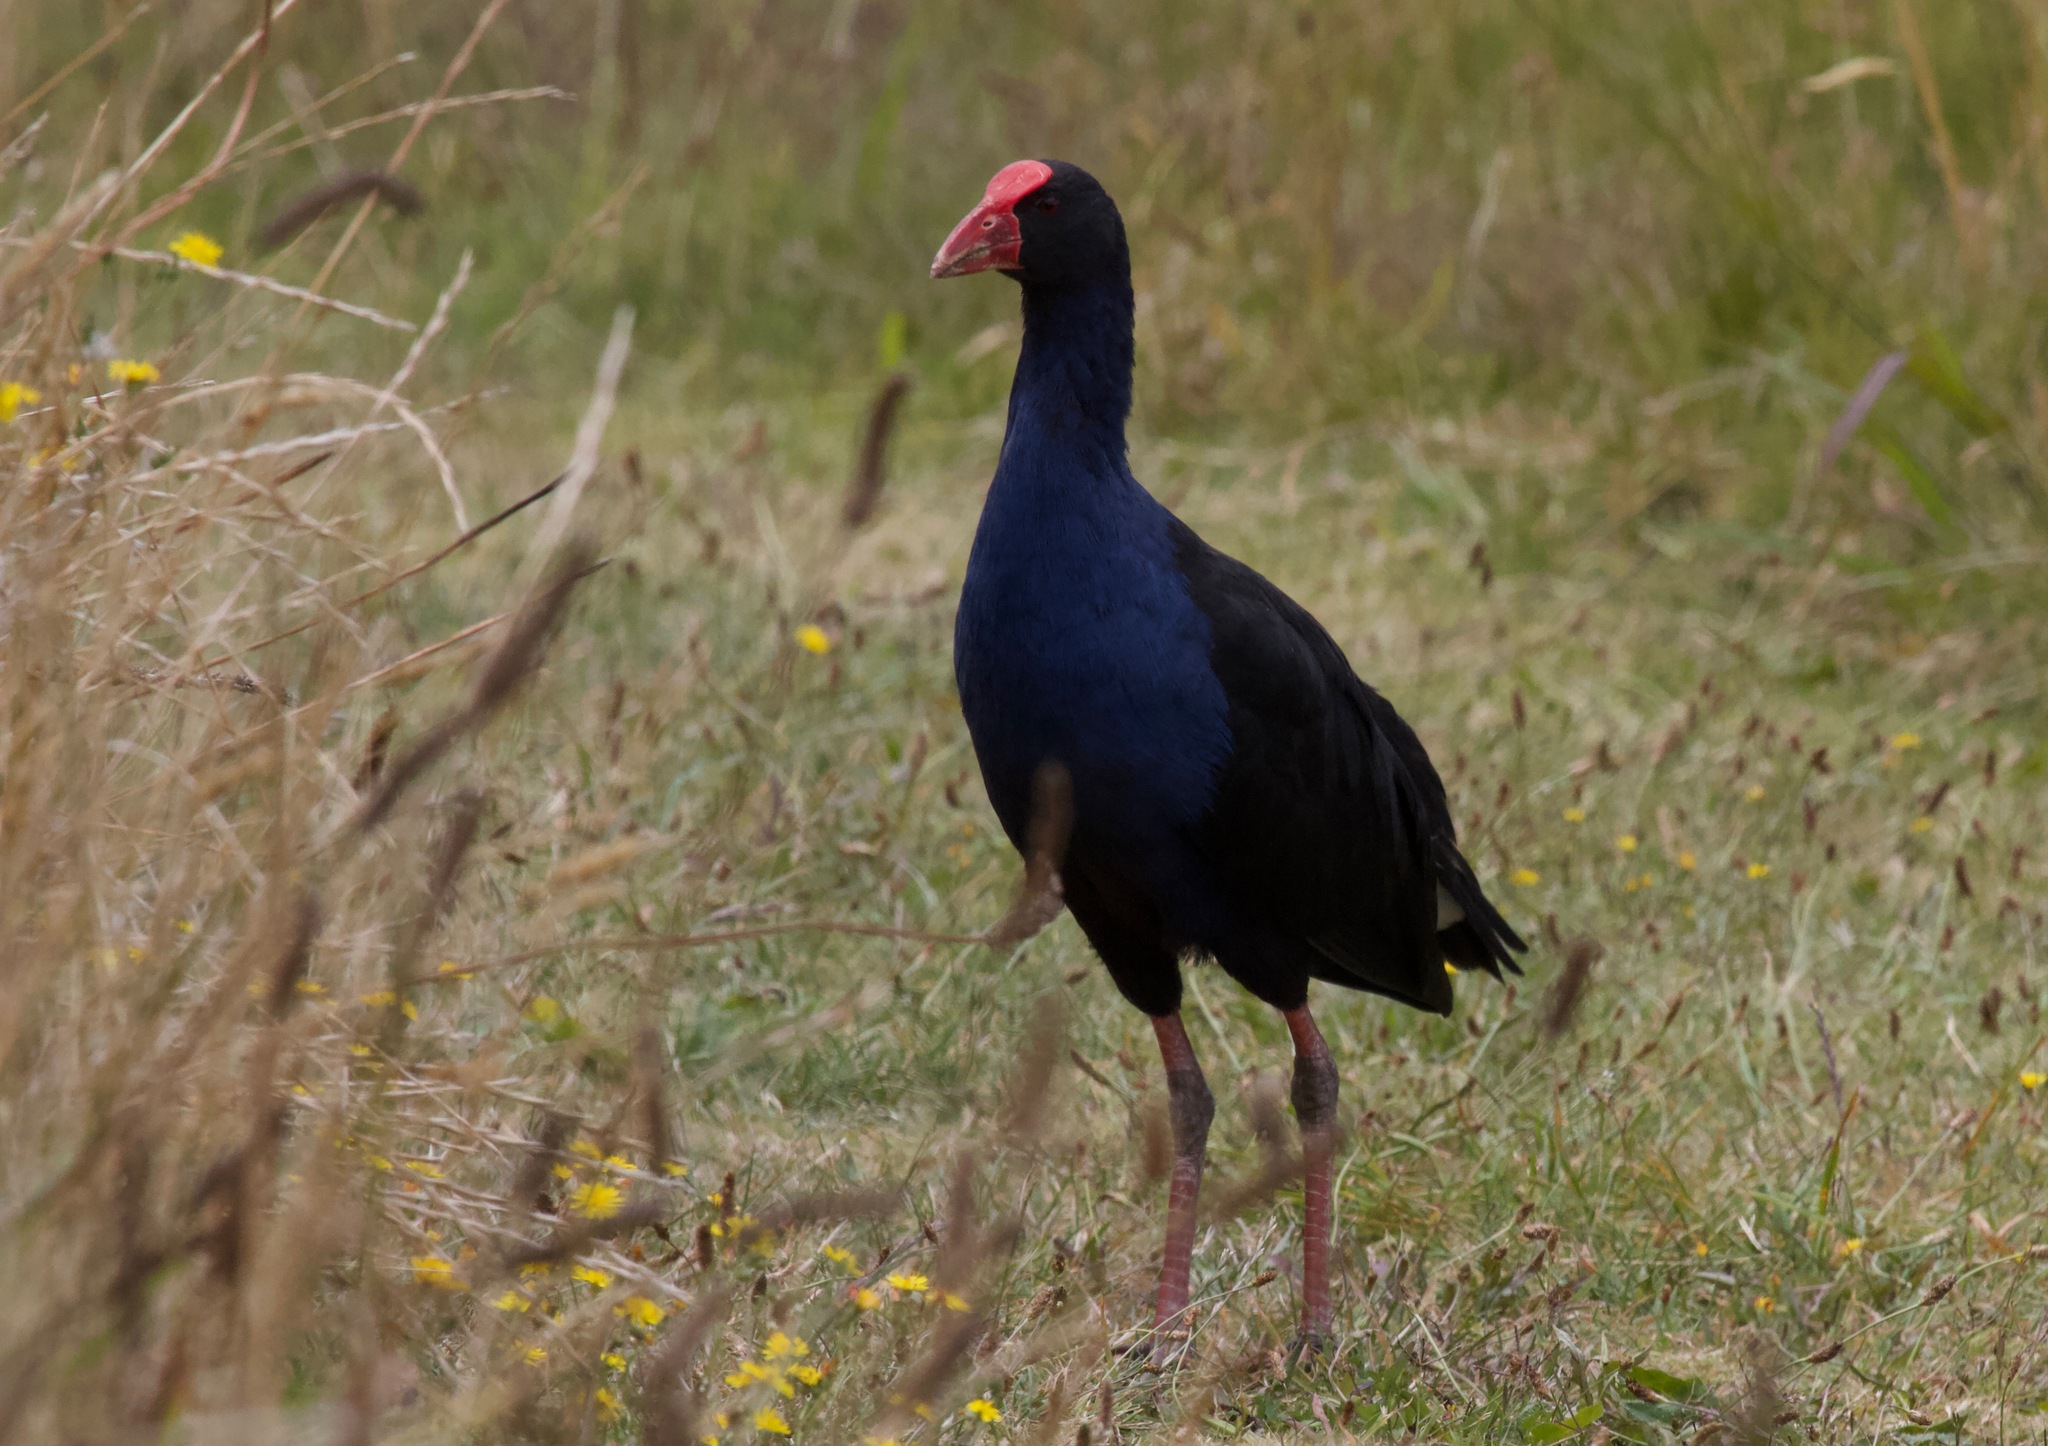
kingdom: Animalia
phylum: Chordata
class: Aves
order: Gruiformes
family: Rallidae
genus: Porphyrio
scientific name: Porphyrio melanotus
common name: Australasian swamphen
